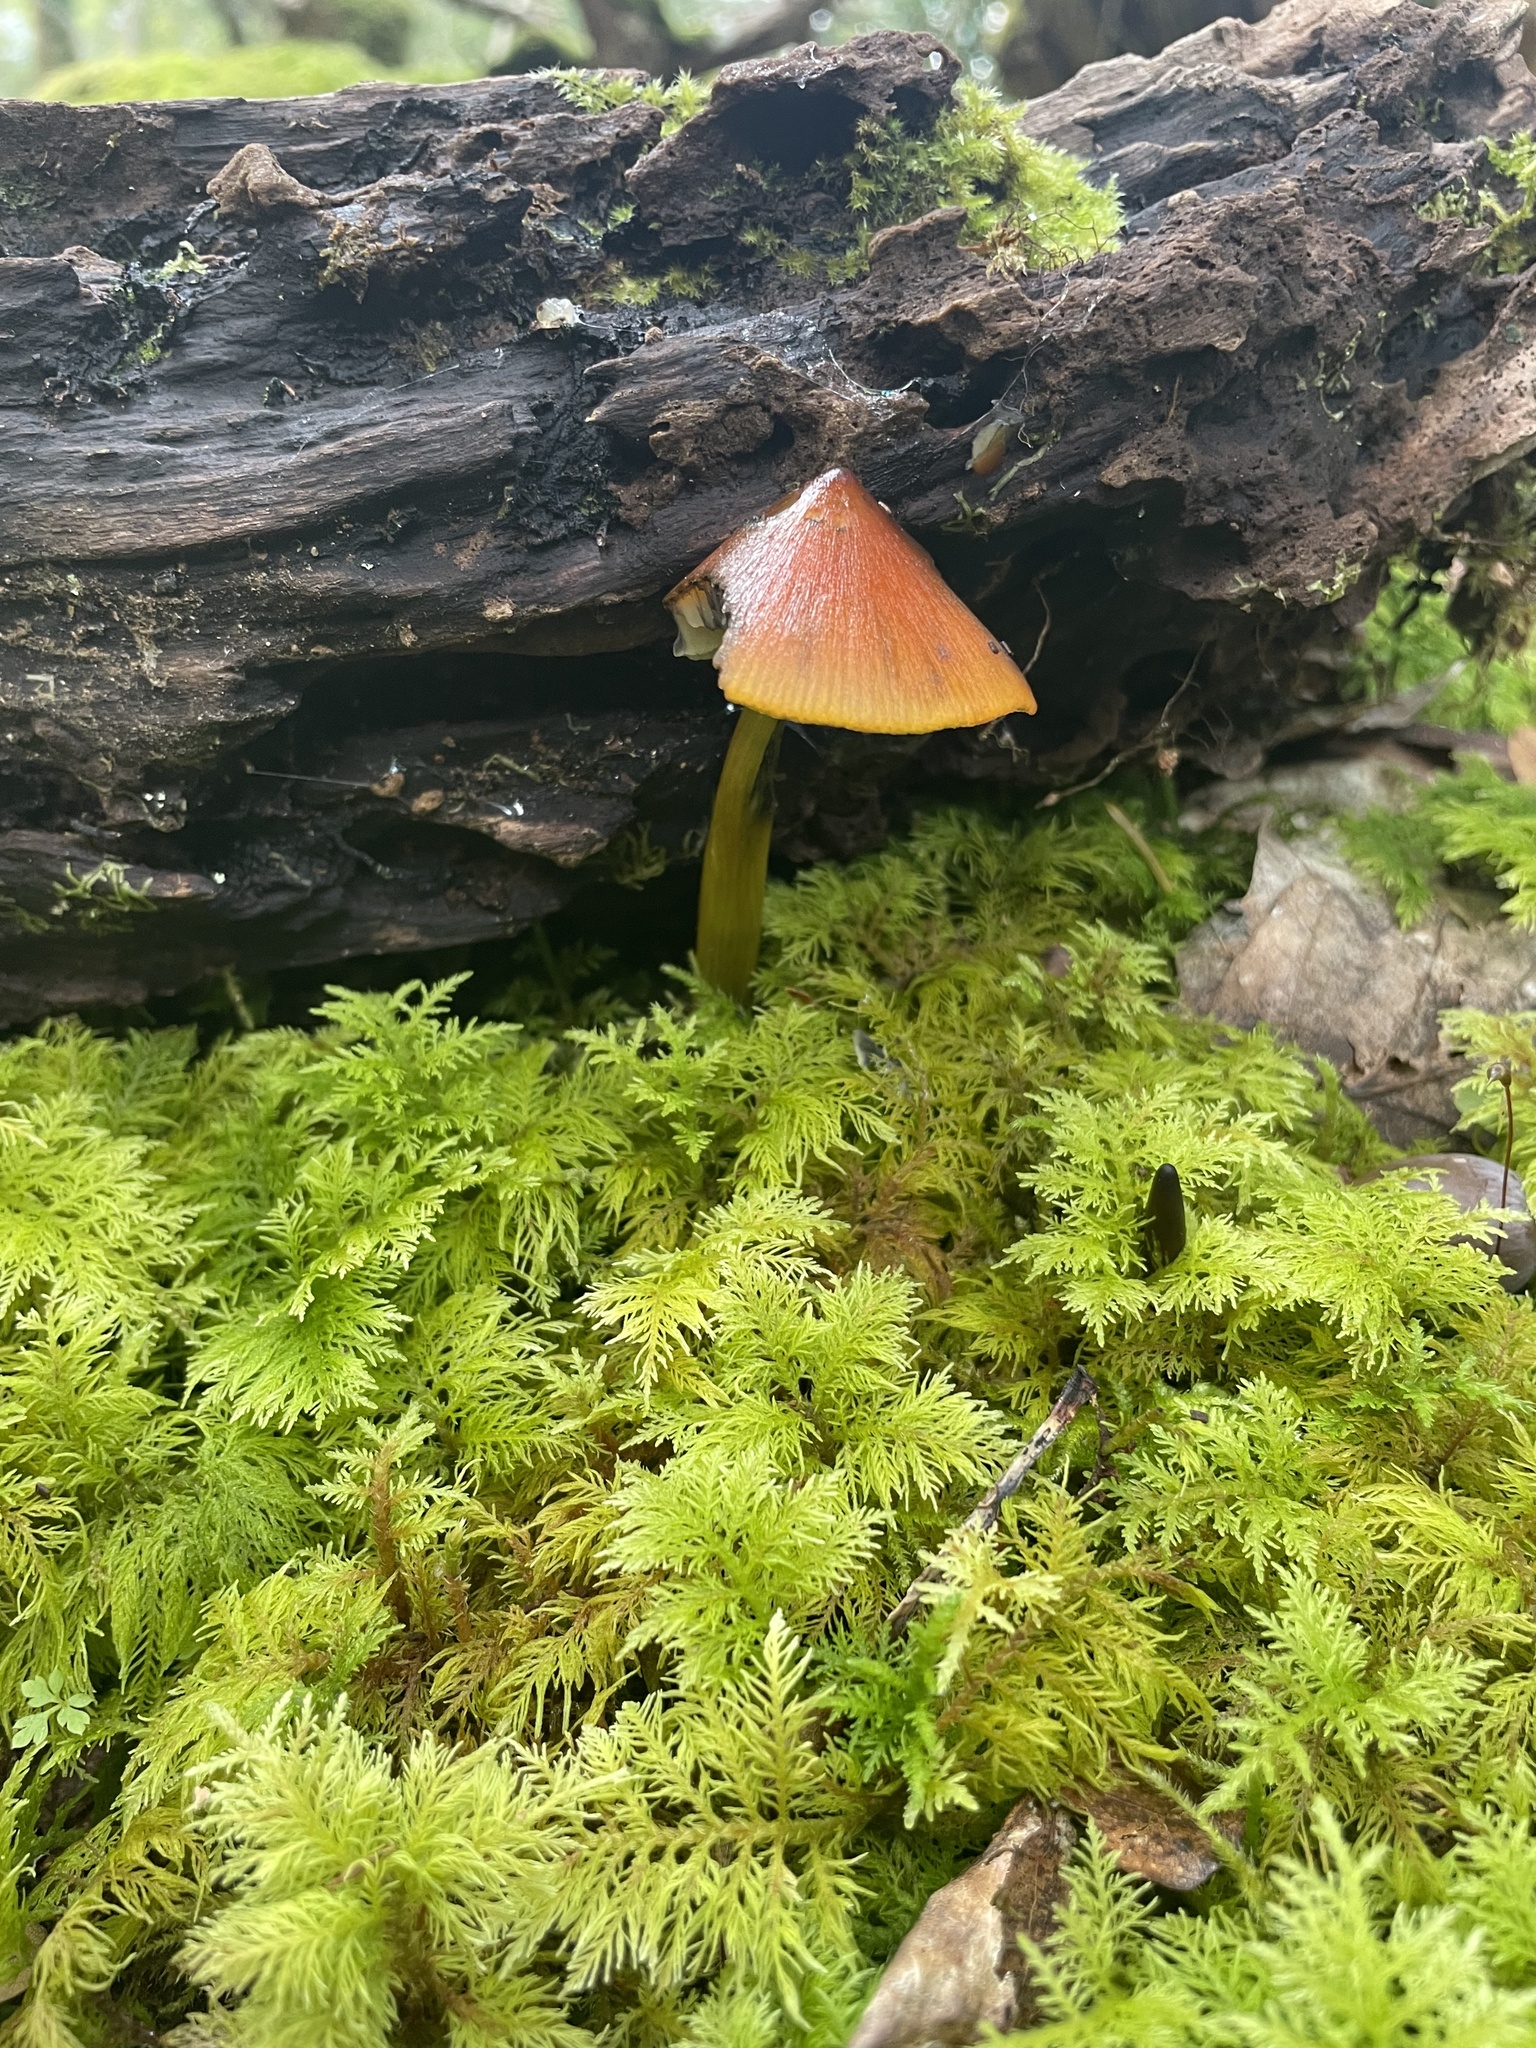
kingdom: Fungi
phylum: Basidiomycota
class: Agaricomycetes
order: Agaricales
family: Hygrophoraceae
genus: Hygrocybe
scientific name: Hygrocybe conica
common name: Blackening wax-cap
